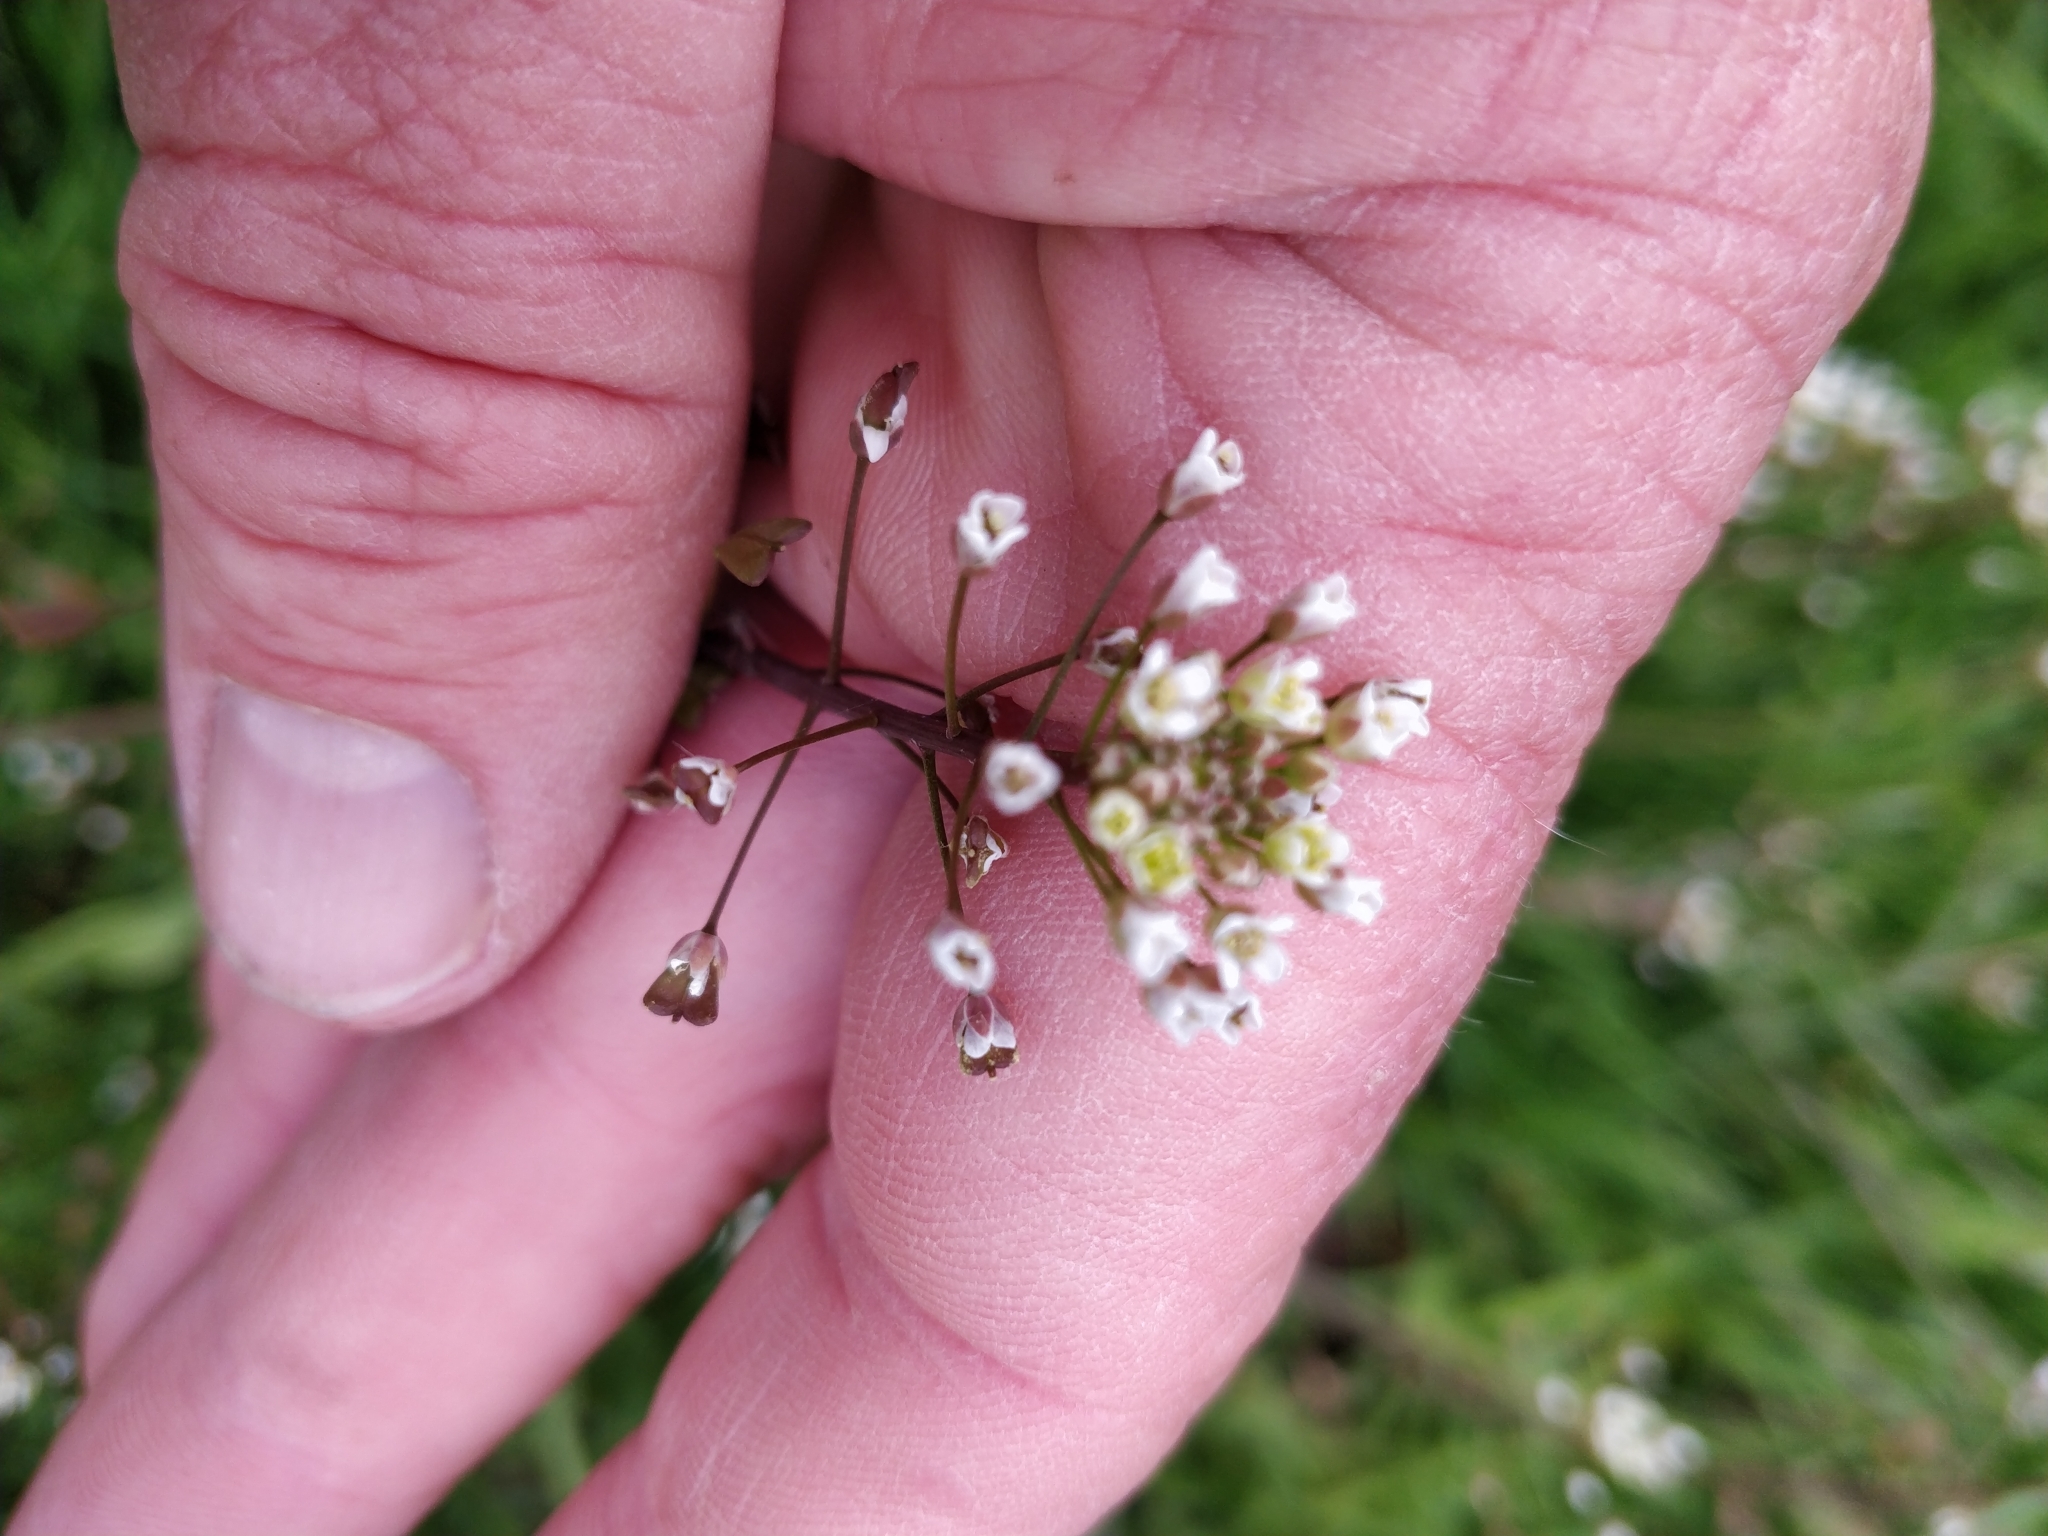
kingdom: Plantae
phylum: Tracheophyta
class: Magnoliopsida
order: Brassicales
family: Brassicaceae
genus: Capsella
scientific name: Capsella bursa-pastoris
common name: Shepherd's purse
